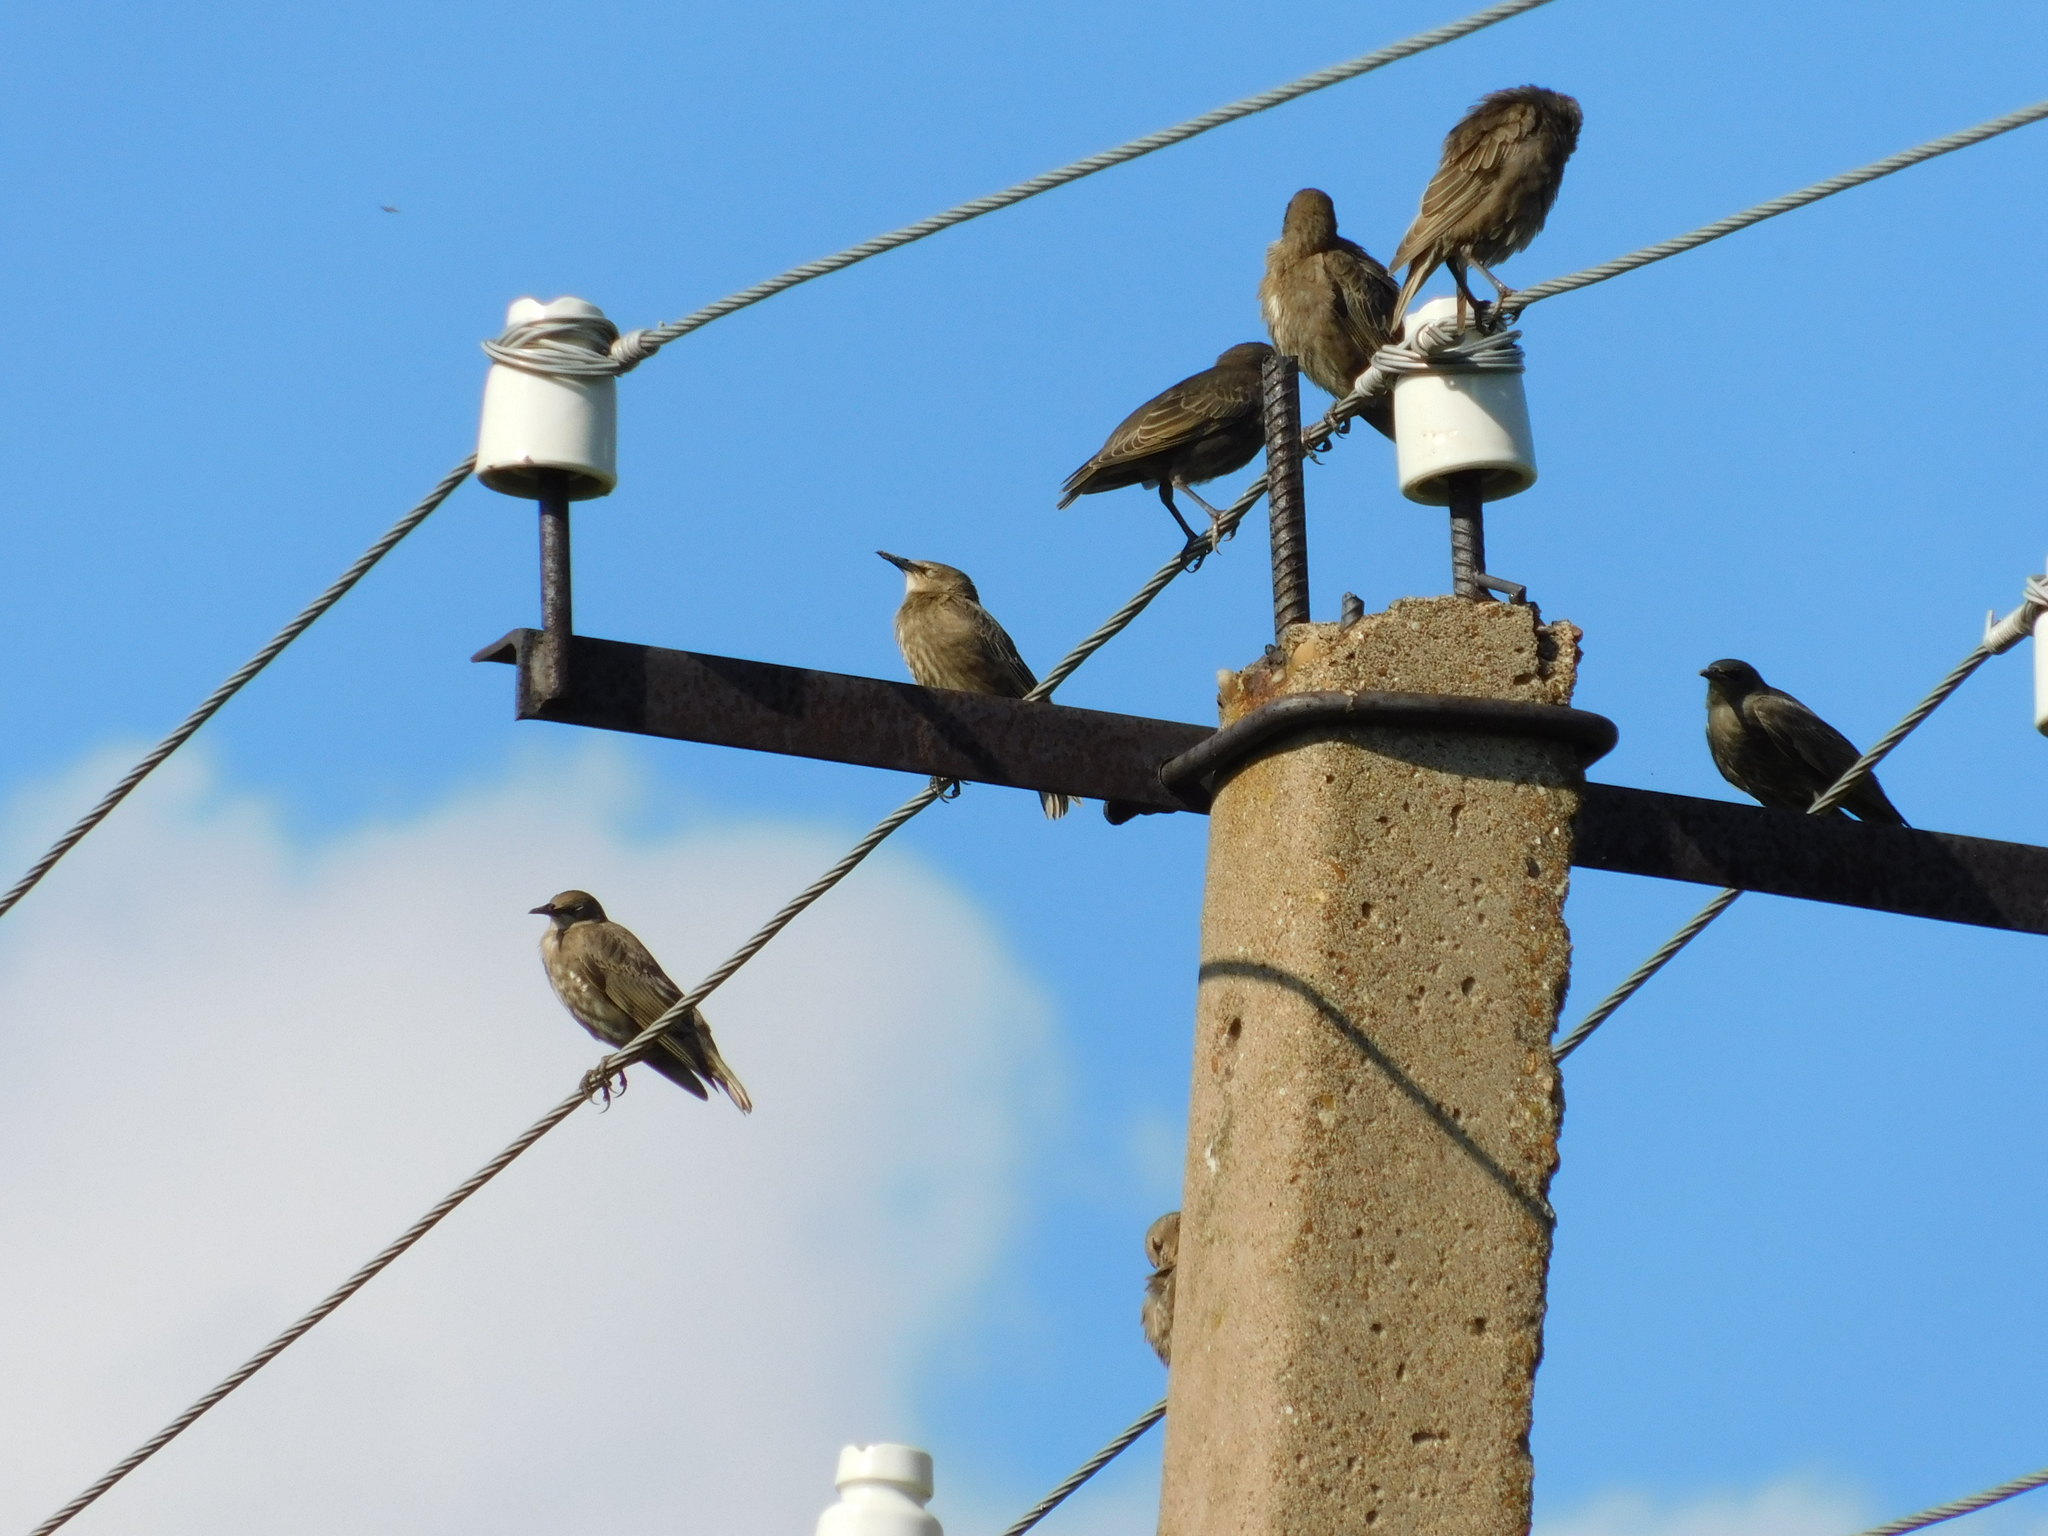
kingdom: Animalia
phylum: Chordata
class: Aves
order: Passeriformes
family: Sturnidae
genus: Sturnus
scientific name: Sturnus vulgaris
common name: Common starling
